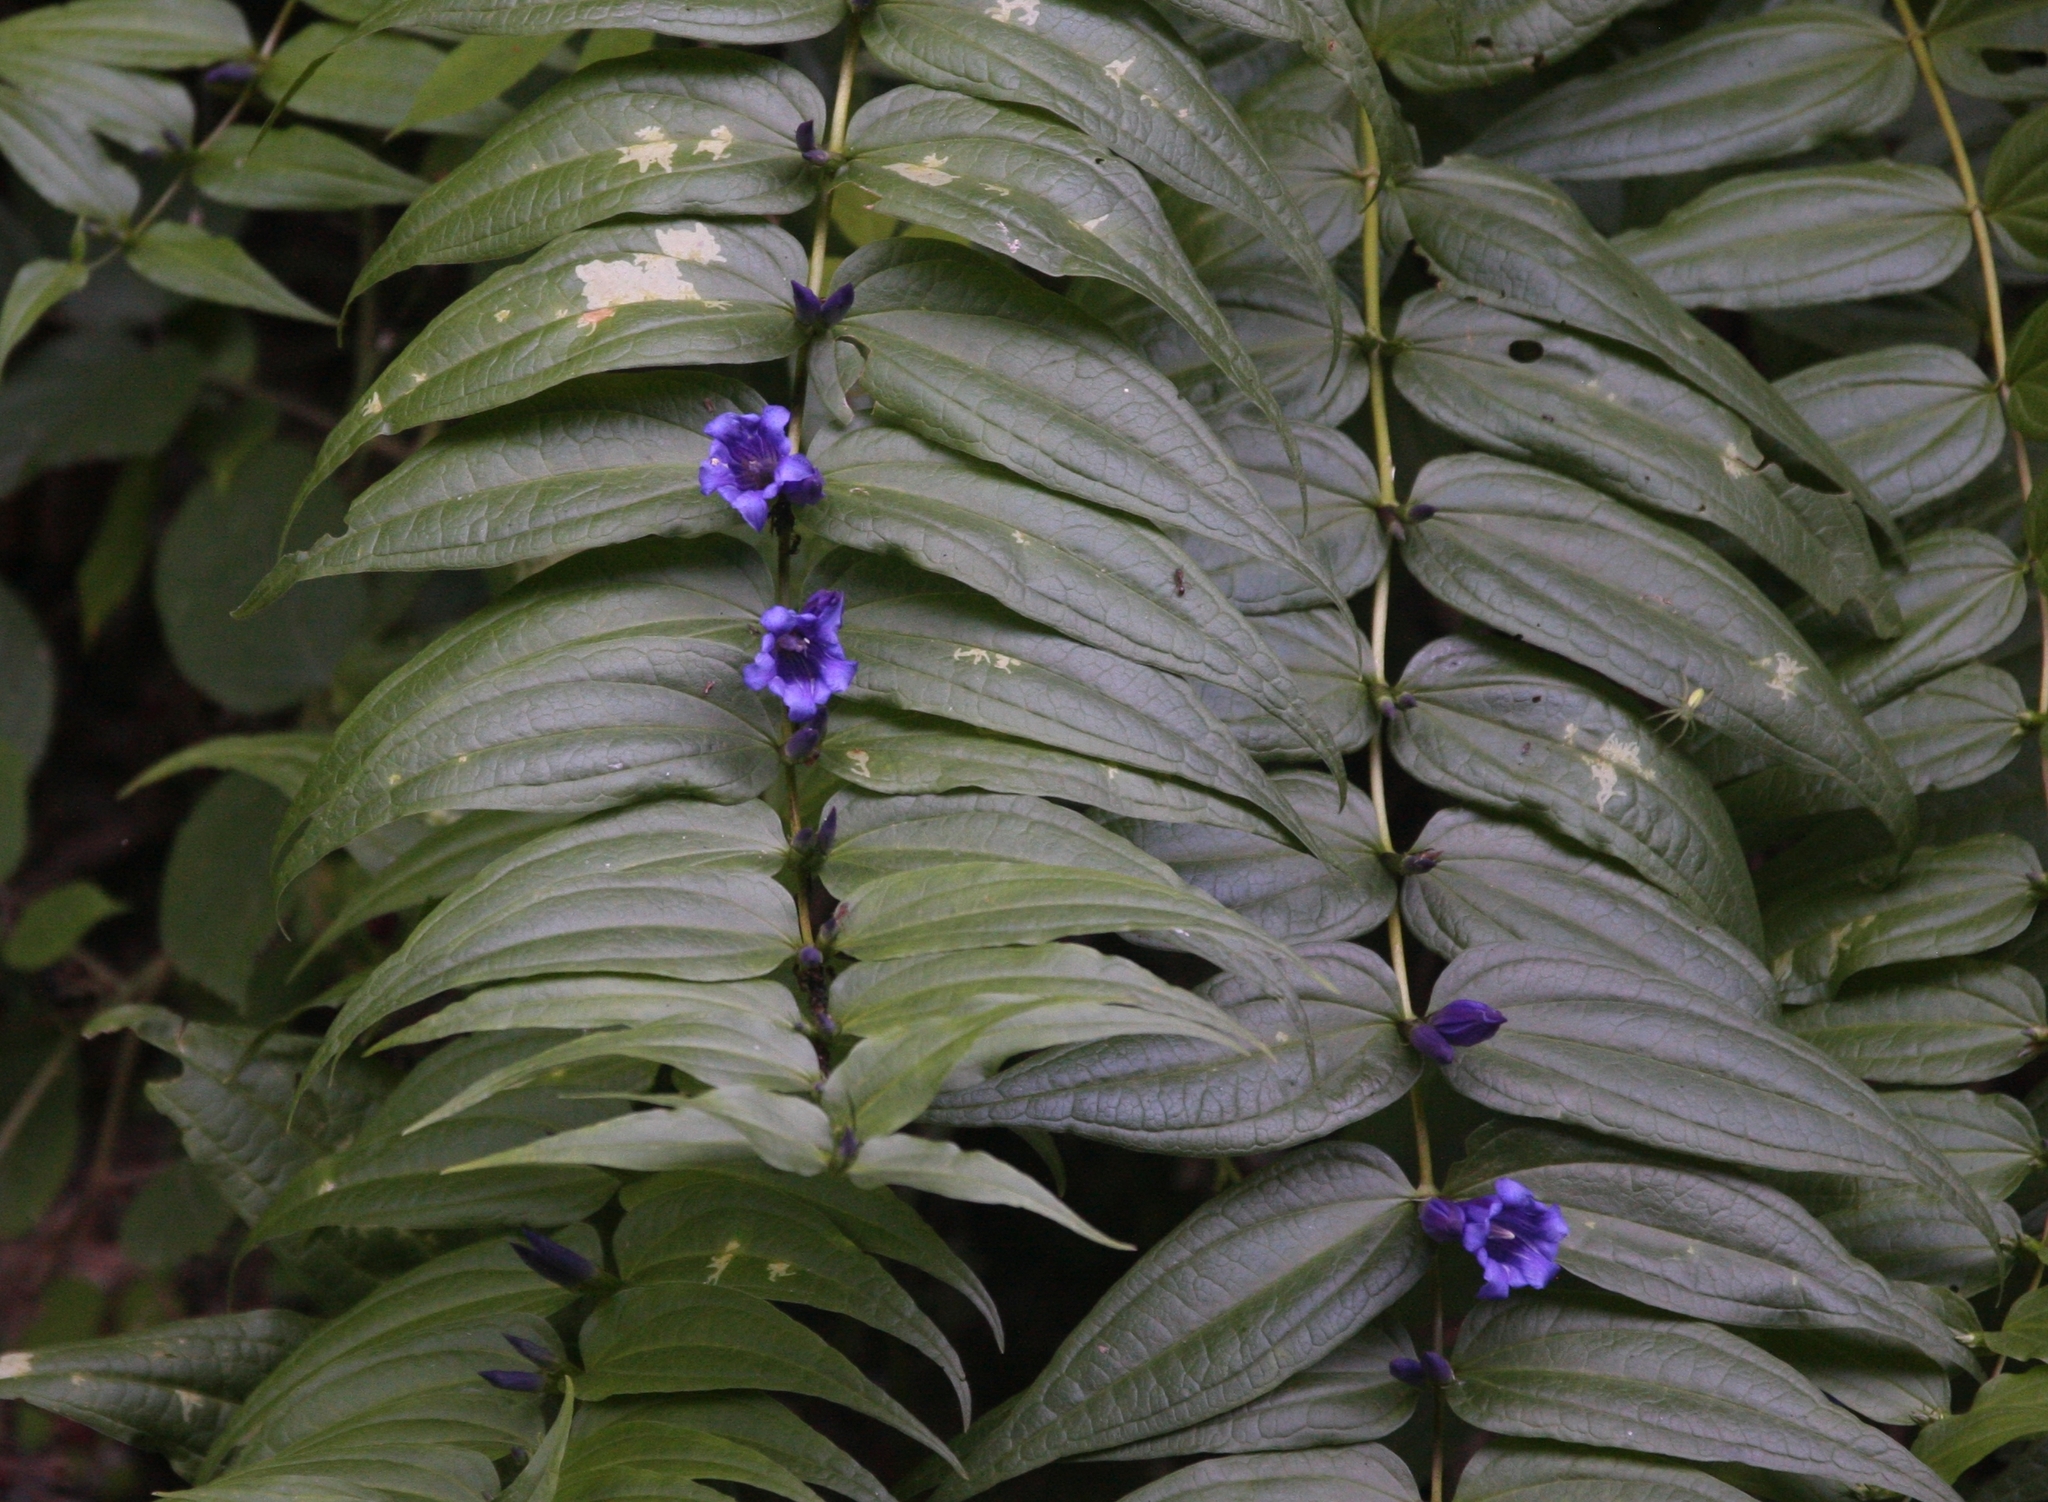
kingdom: Plantae
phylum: Tracheophyta
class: Magnoliopsida
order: Gentianales
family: Gentianaceae
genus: Gentiana
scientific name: Gentiana asclepiadea
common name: Willow gentian
